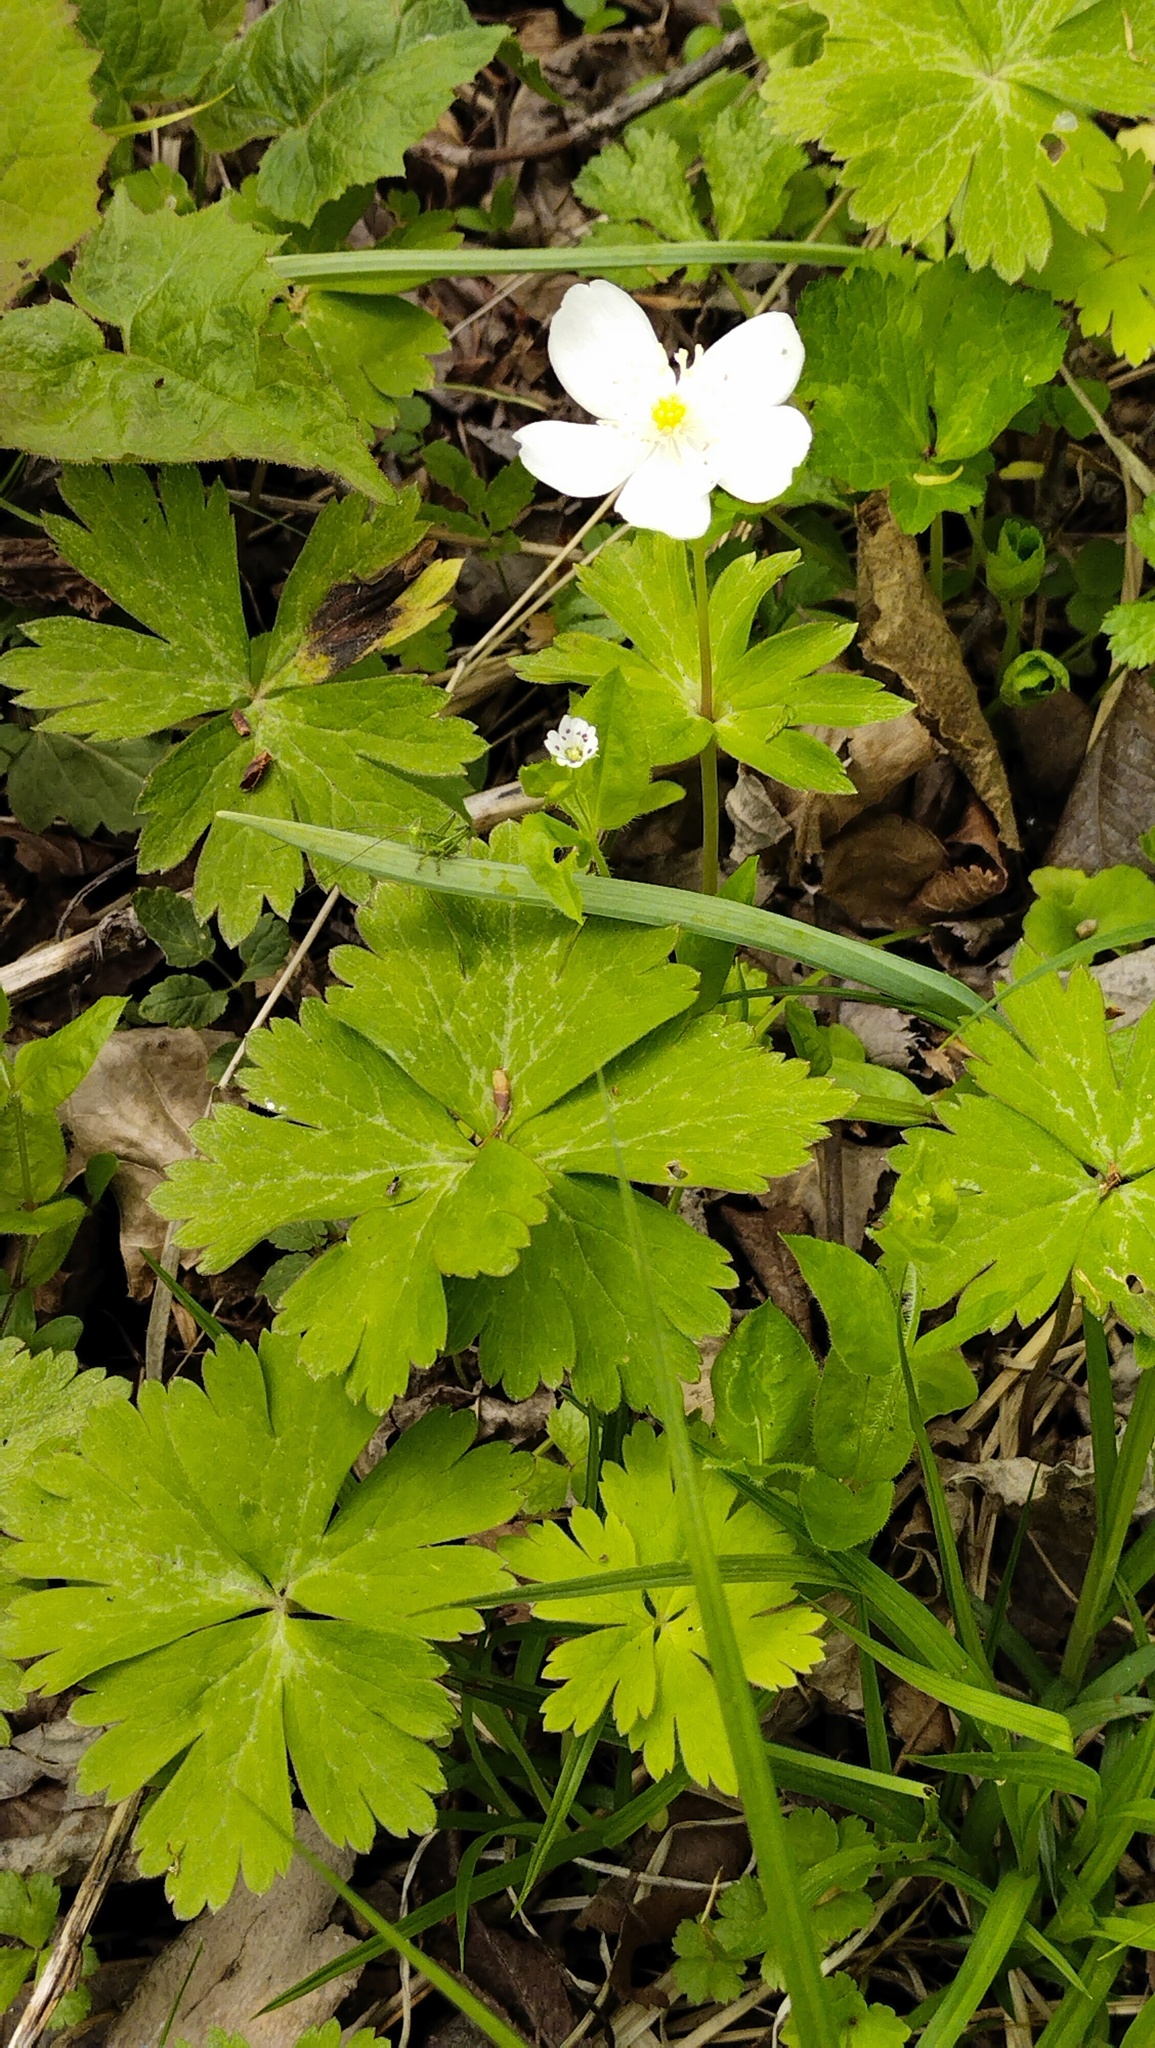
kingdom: Plantae
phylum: Tracheophyta
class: Magnoliopsida
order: Ranunculales
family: Ranunculaceae
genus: Anemonastrum
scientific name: Anemonastrum baicalense
